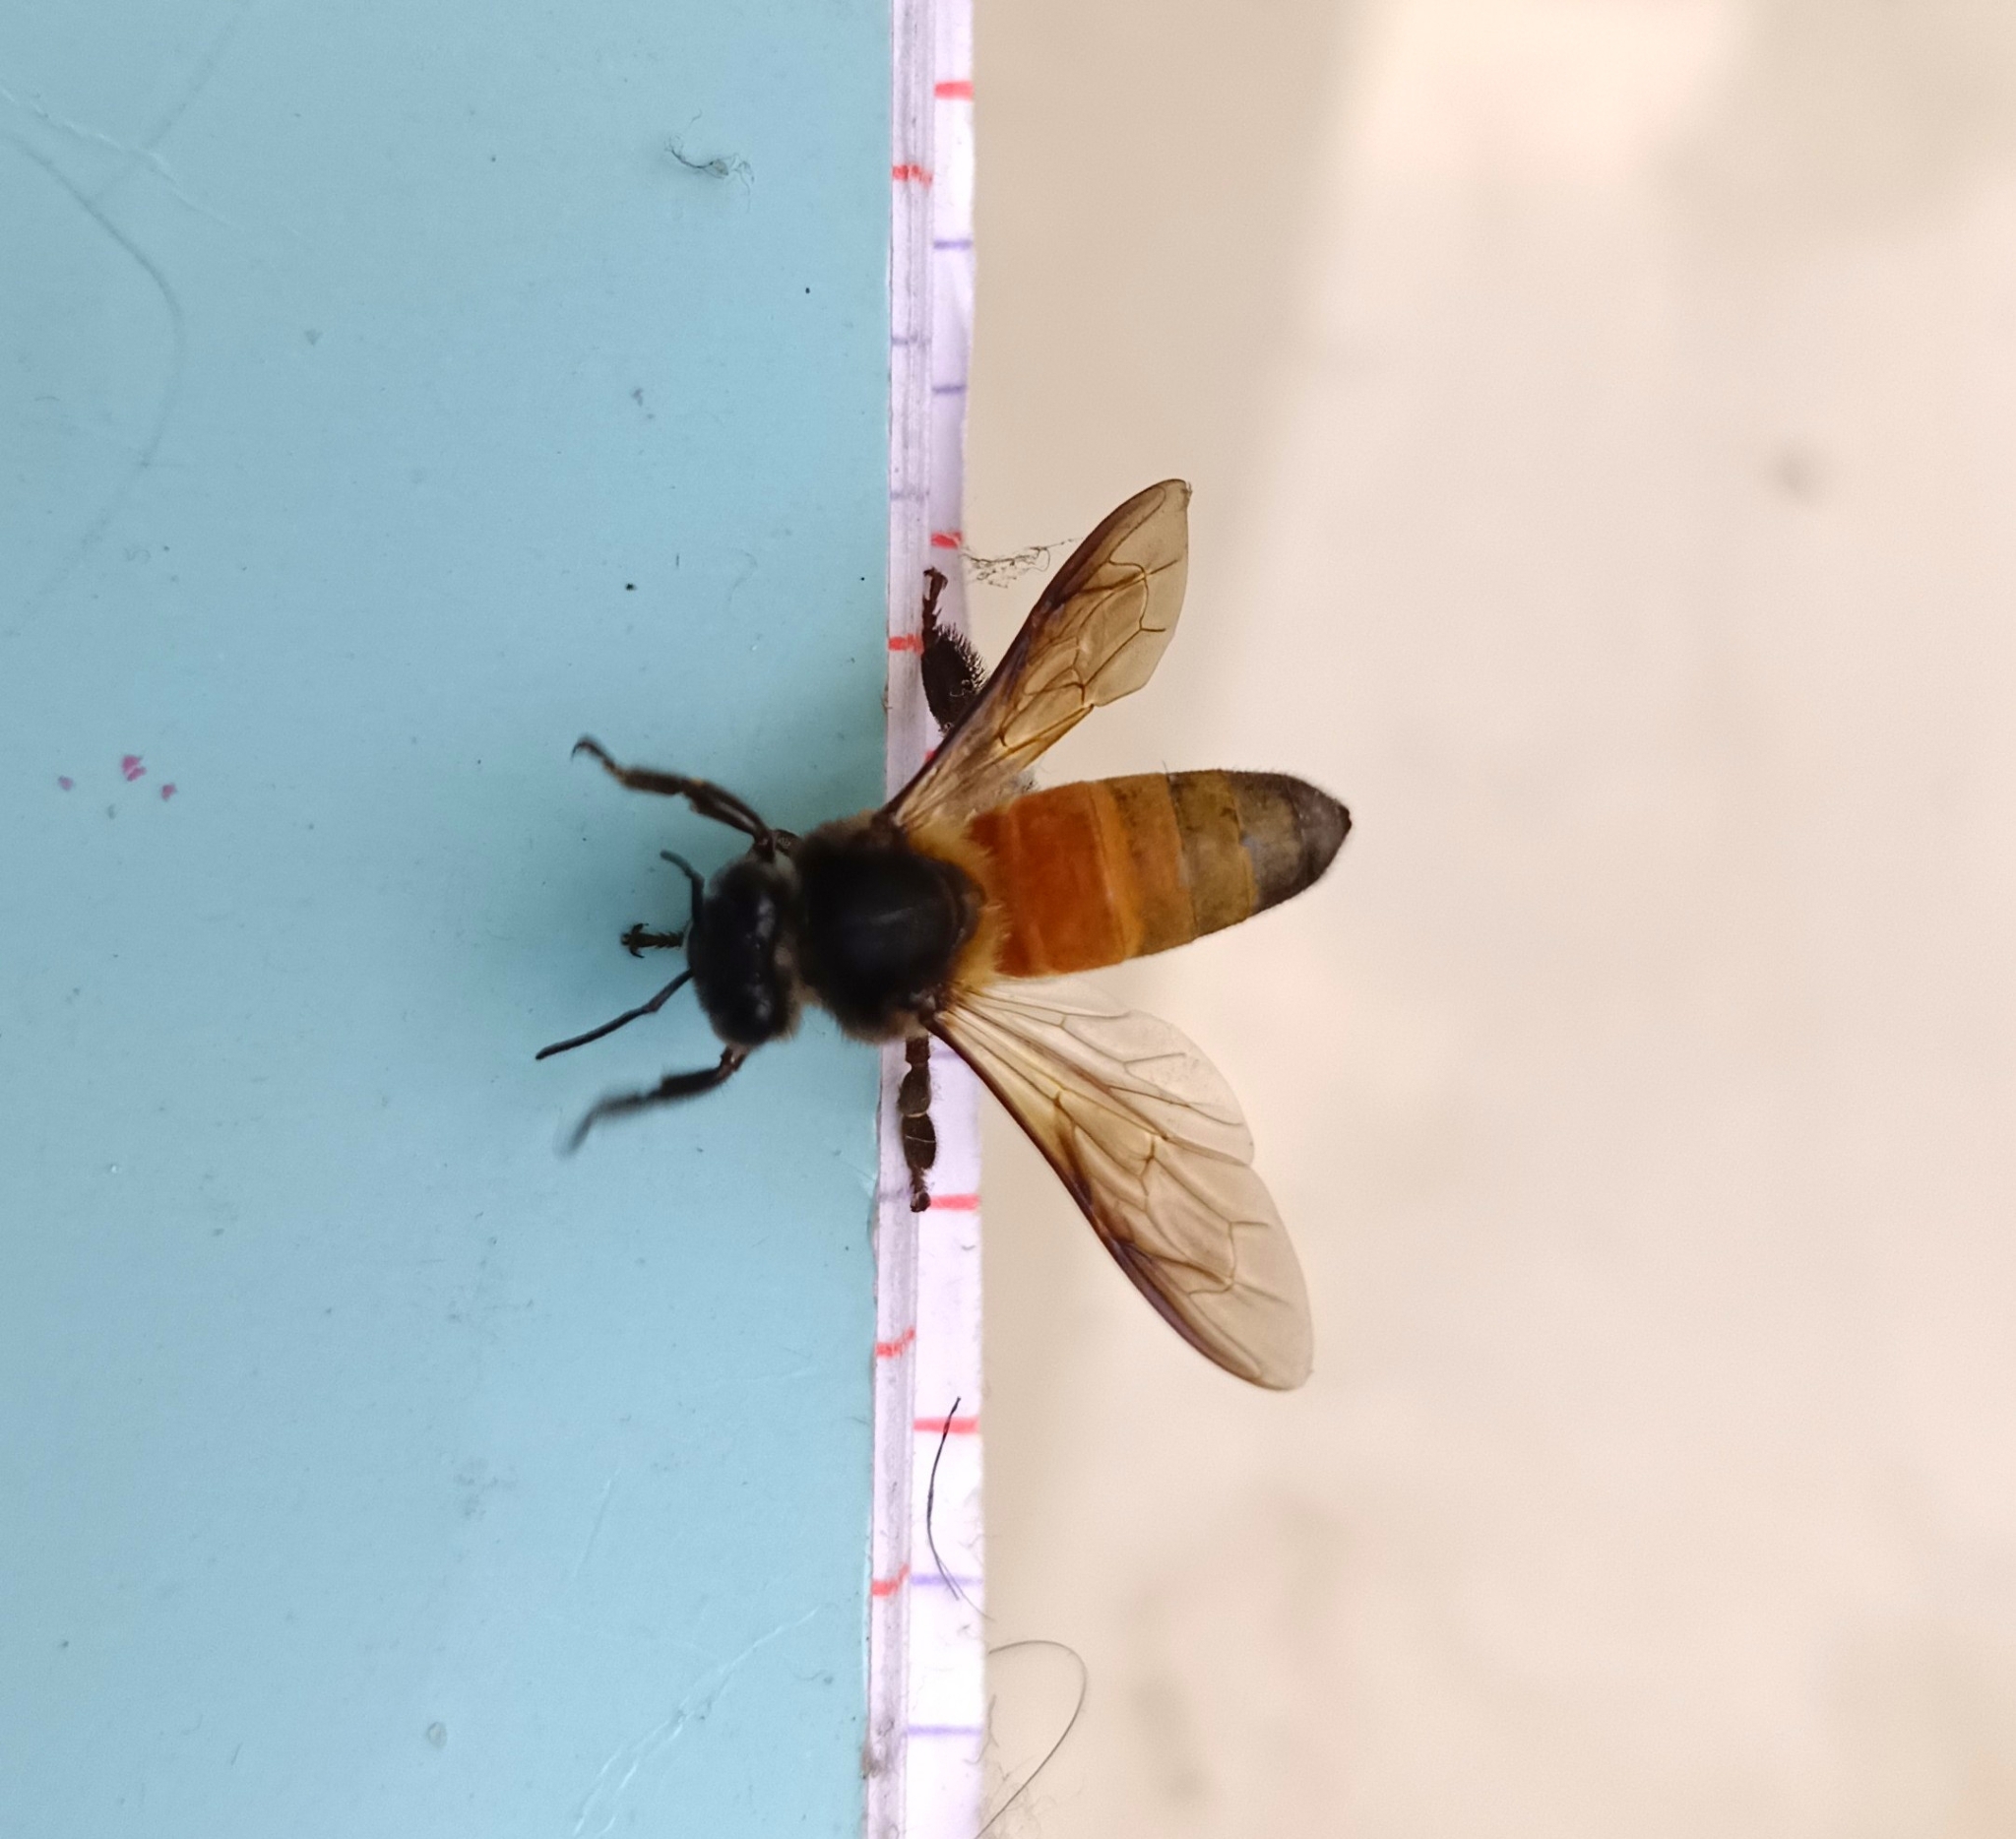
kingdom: Animalia
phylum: Arthropoda
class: Insecta
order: Hymenoptera
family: Apidae
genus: Apis
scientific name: Apis dorsata
